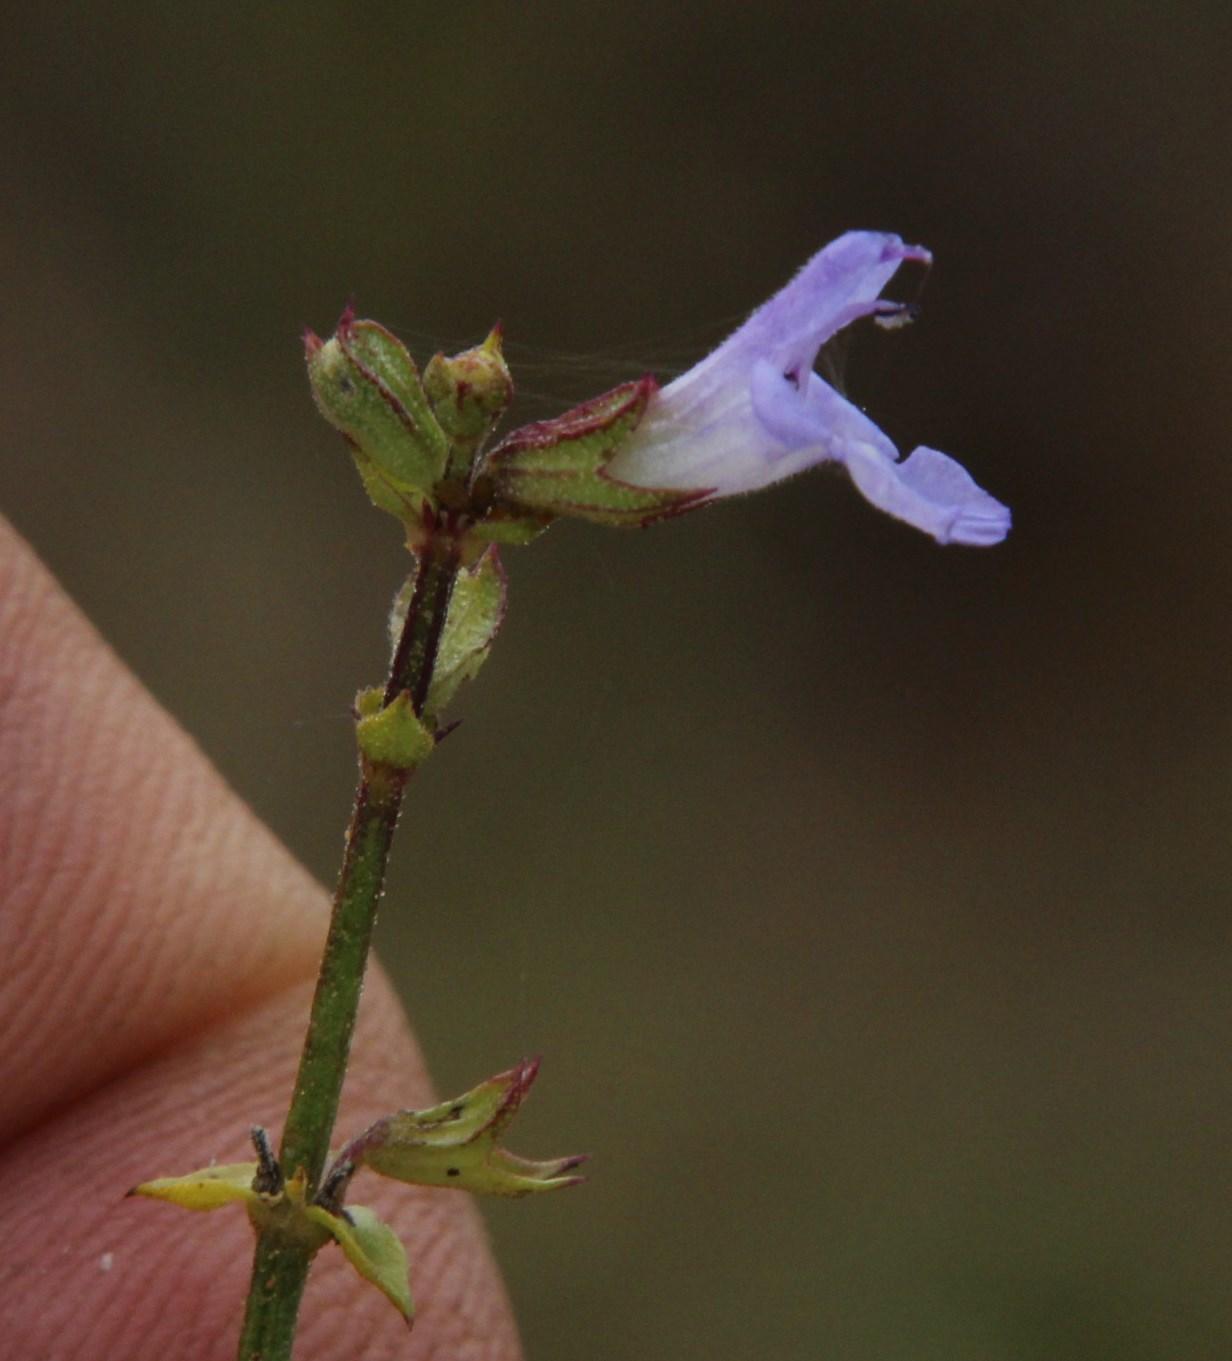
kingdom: Plantae
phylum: Tracheophyta
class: Magnoliopsida
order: Lamiales
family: Lamiaceae
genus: Salvia
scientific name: Salvia stenophylla
